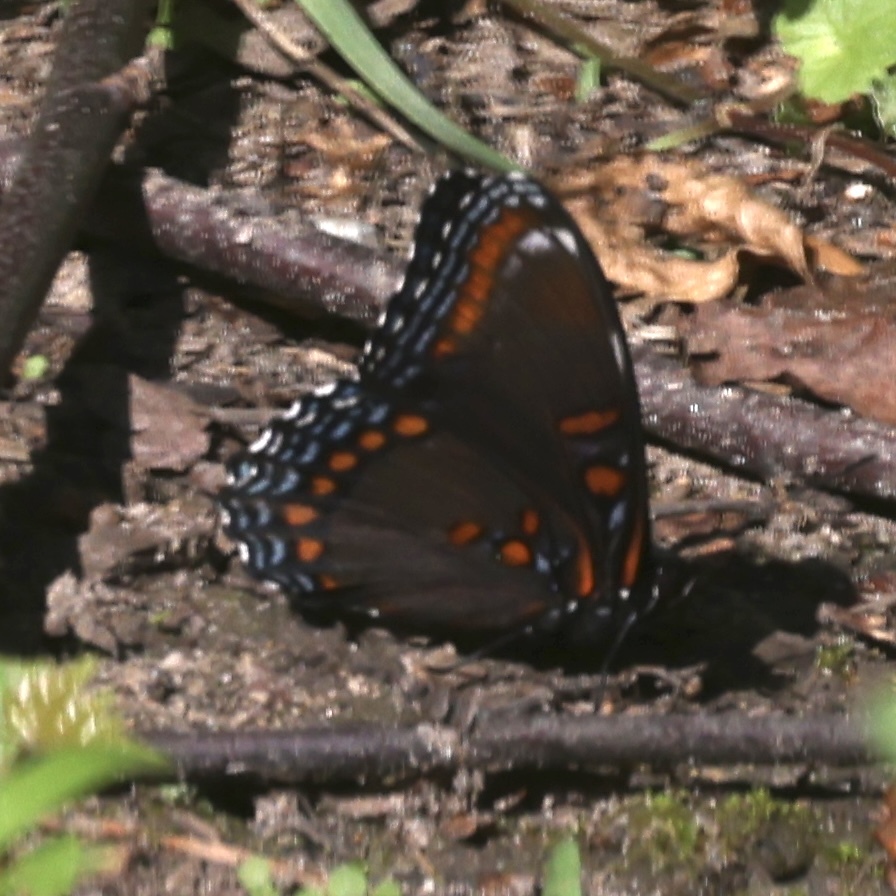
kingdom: Animalia
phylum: Arthropoda
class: Insecta
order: Lepidoptera
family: Nymphalidae
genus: Limenitis
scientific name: Limenitis arthemis
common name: Red-spotted admiral
